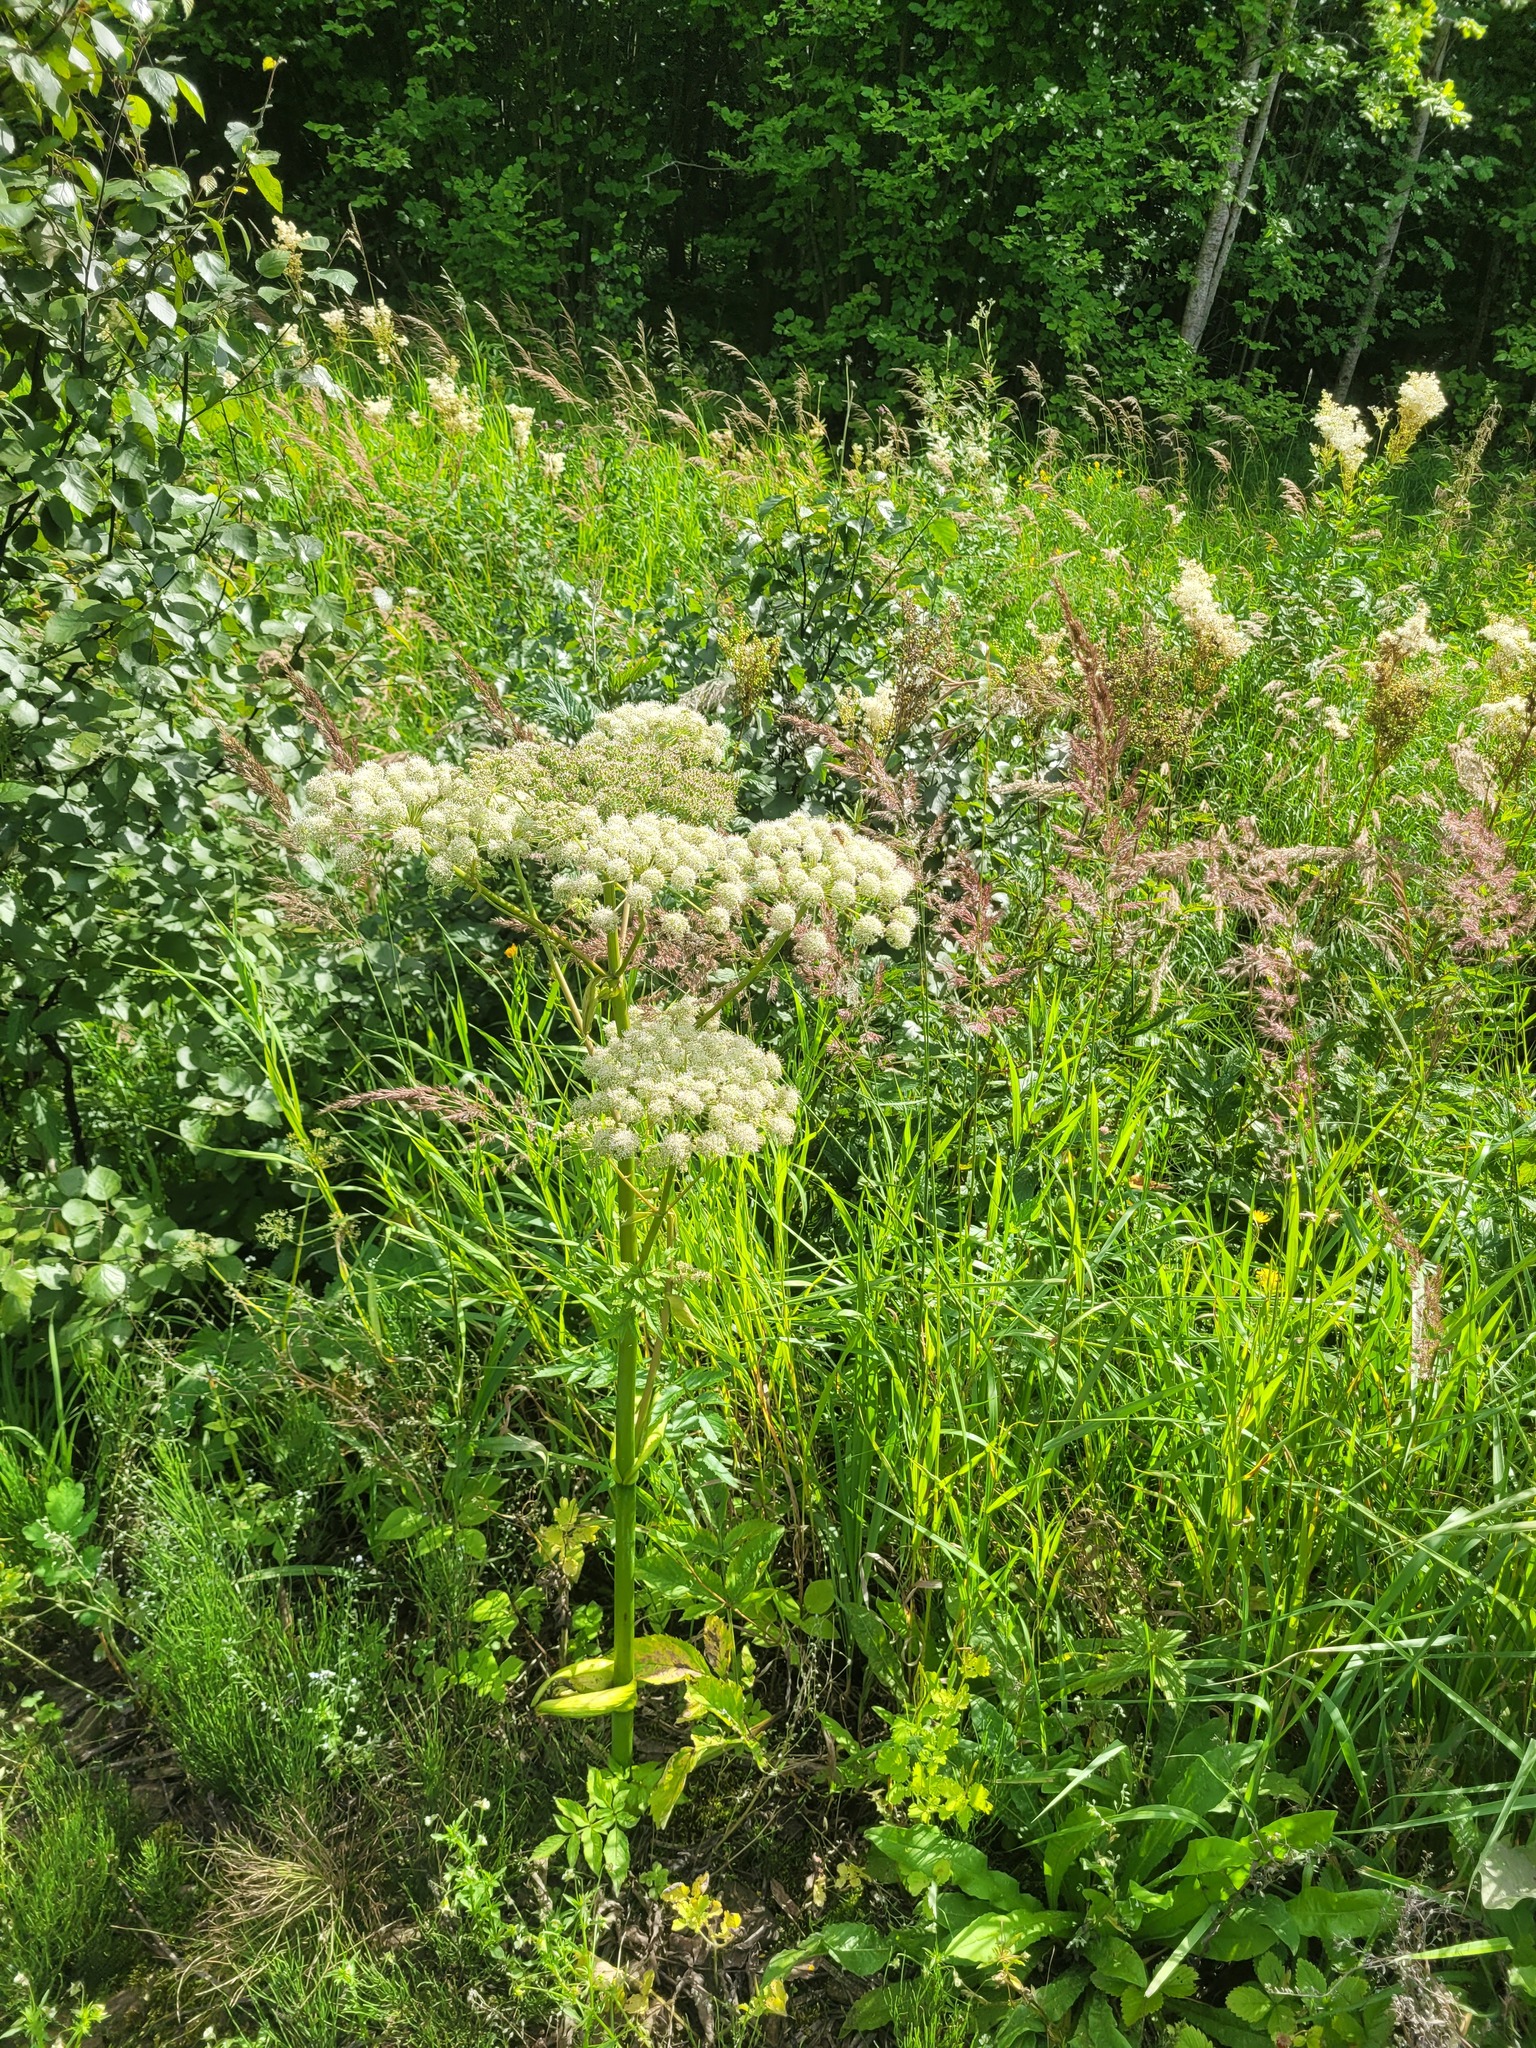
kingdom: Plantae
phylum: Tracheophyta
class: Magnoliopsida
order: Apiales
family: Apiaceae
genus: Angelica
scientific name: Angelica sylvestris
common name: Wild angelica
